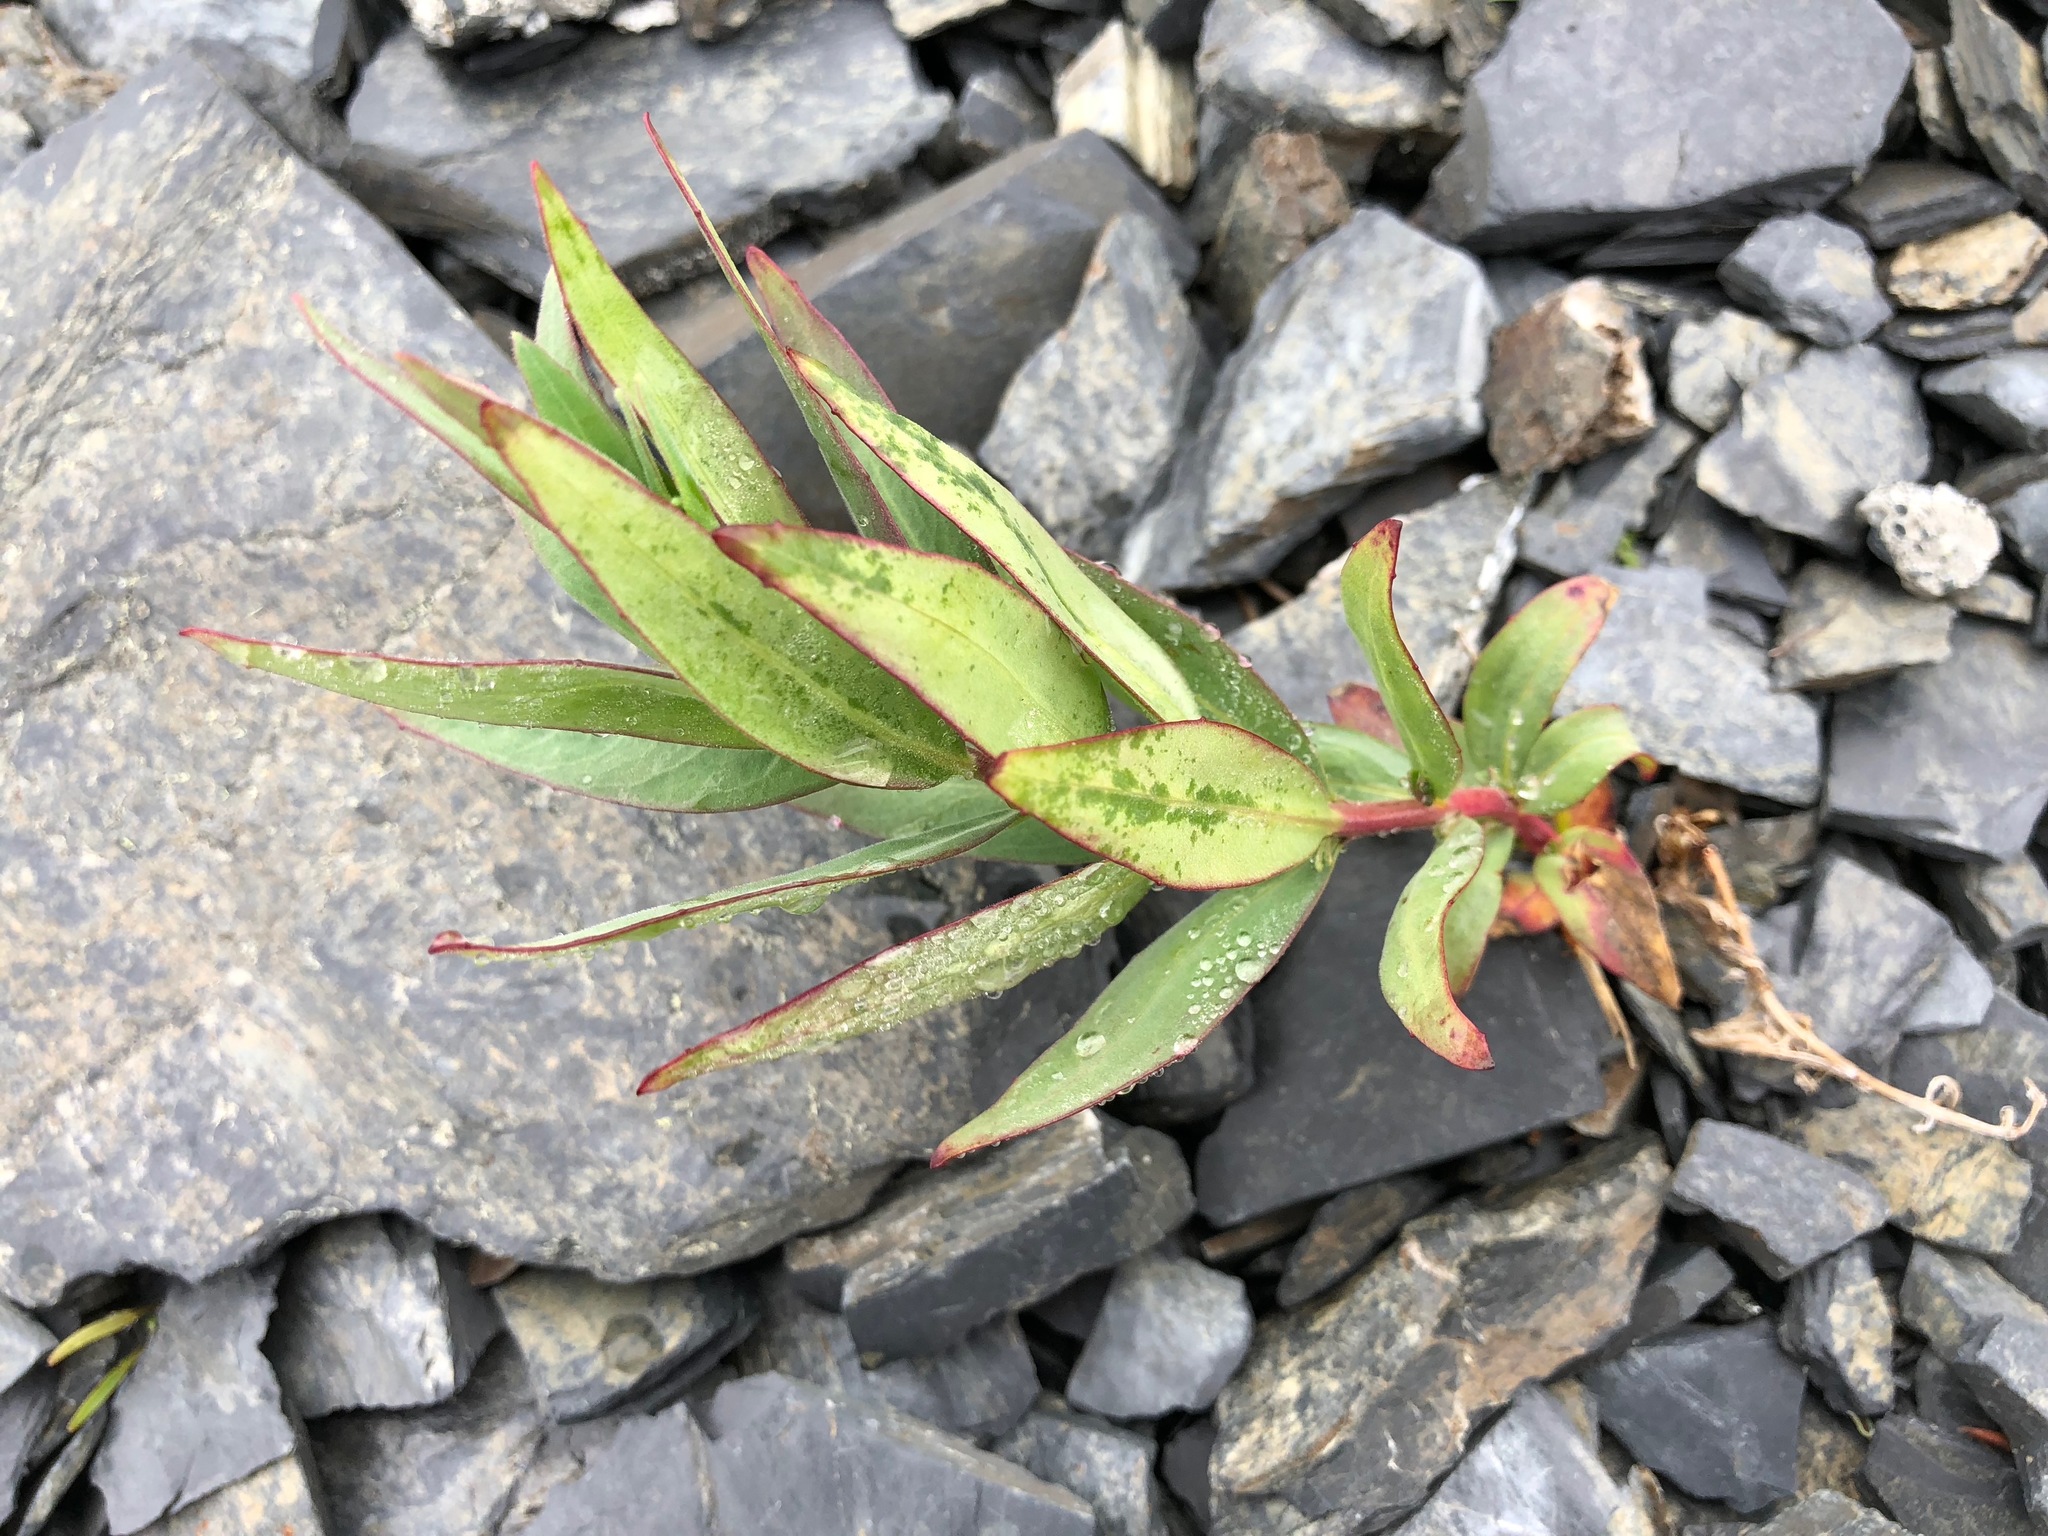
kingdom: Plantae
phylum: Tracheophyta
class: Magnoliopsida
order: Myrtales
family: Onagraceae
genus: Chamaenerion
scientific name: Chamaenerion latifolium
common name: Dwarf fireweed
